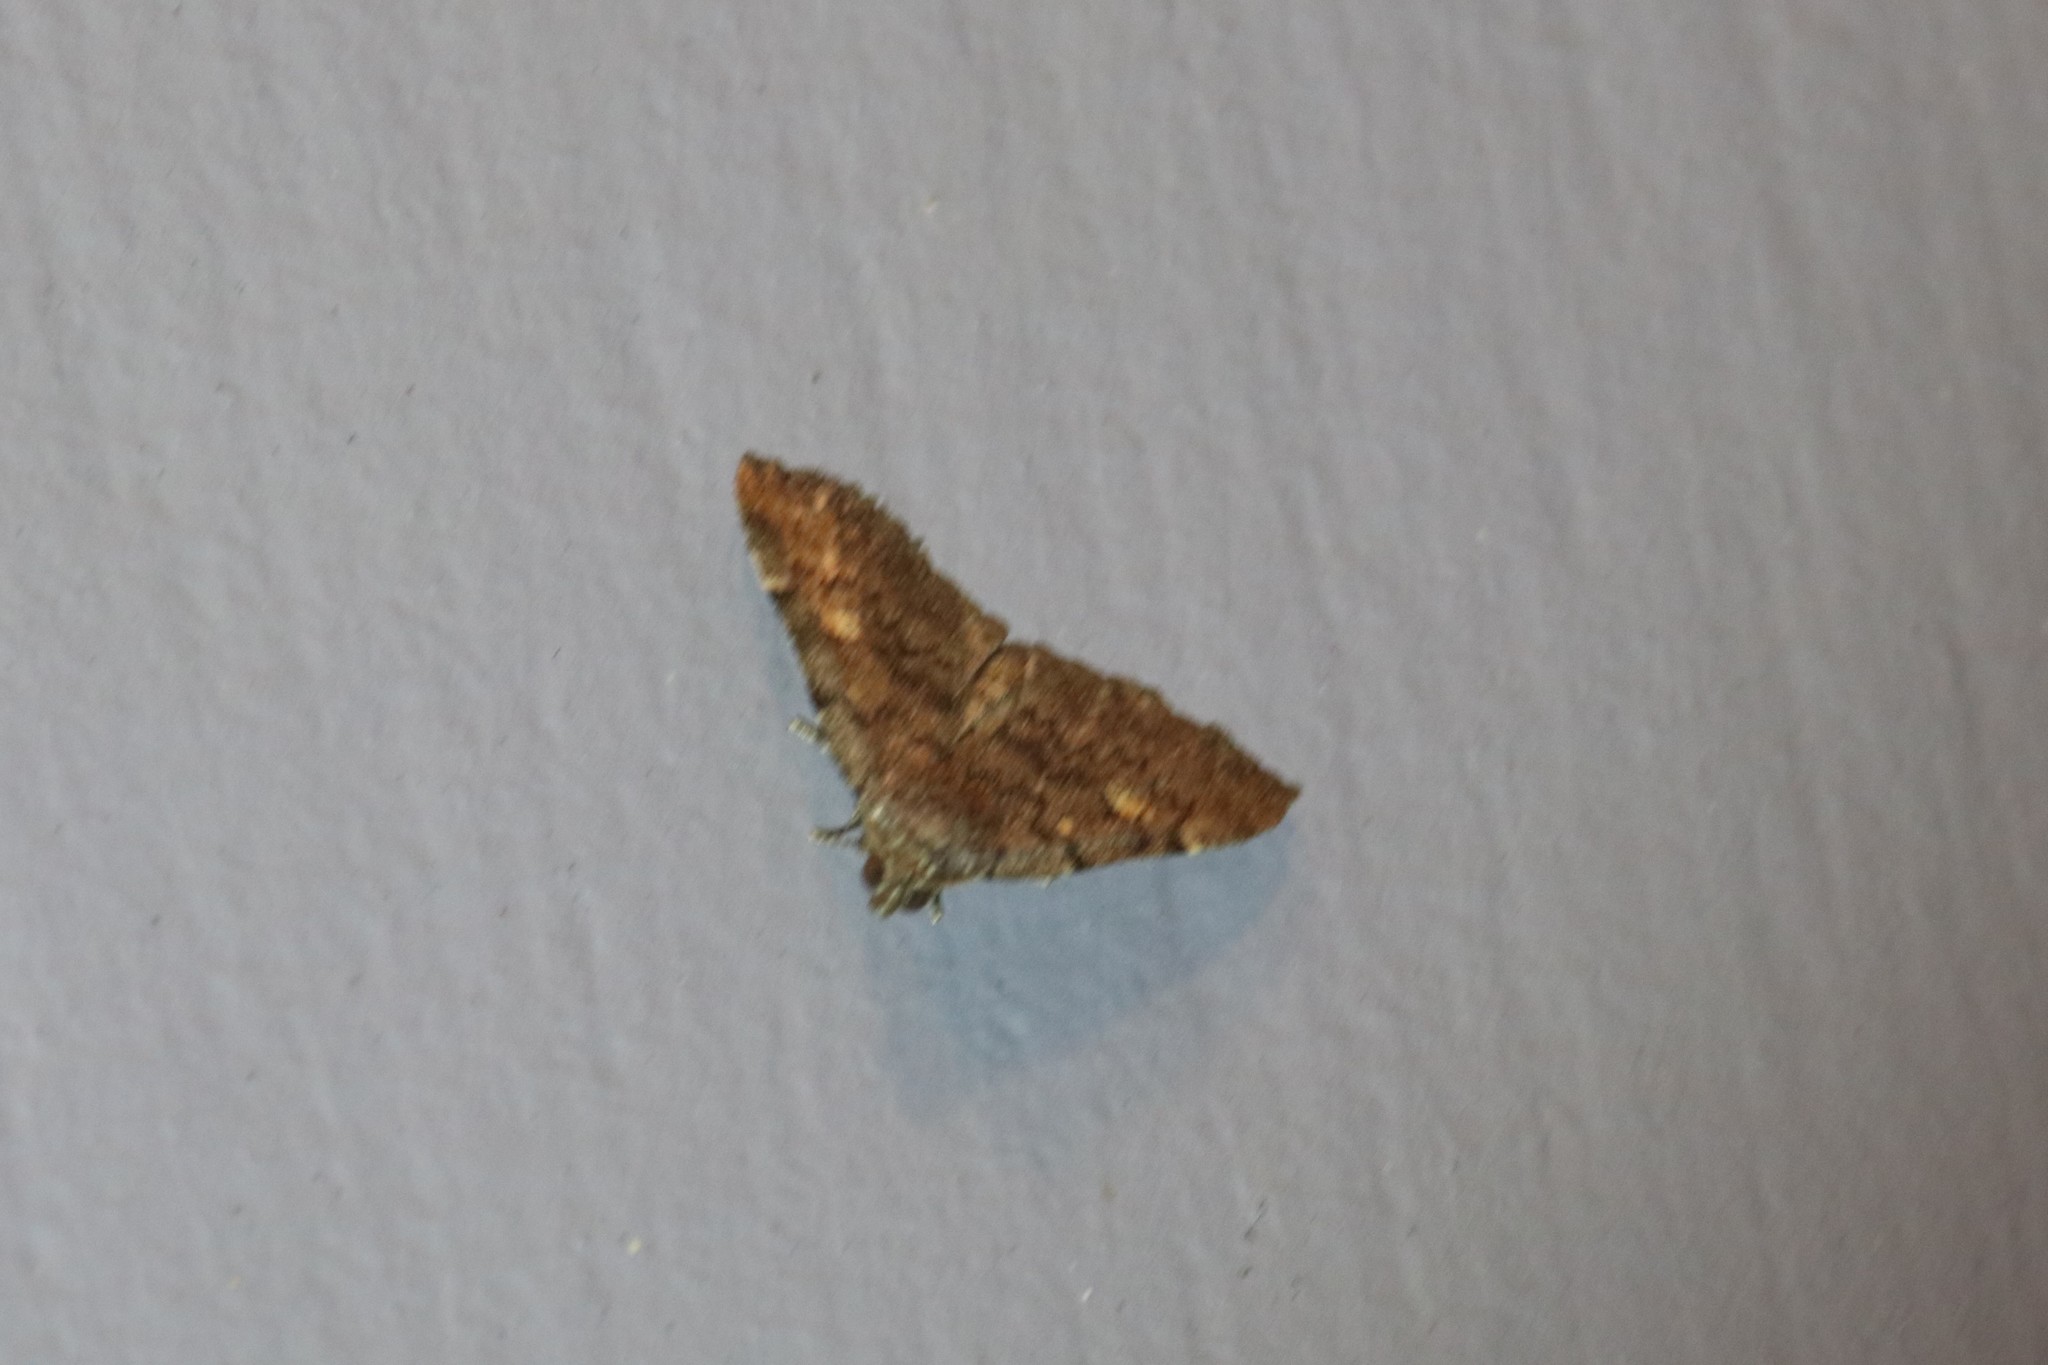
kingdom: Animalia
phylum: Arthropoda
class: Insecta
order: Lepidoptera
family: Erebidae
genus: Idia
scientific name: Idia aemula
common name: Common idia moth
